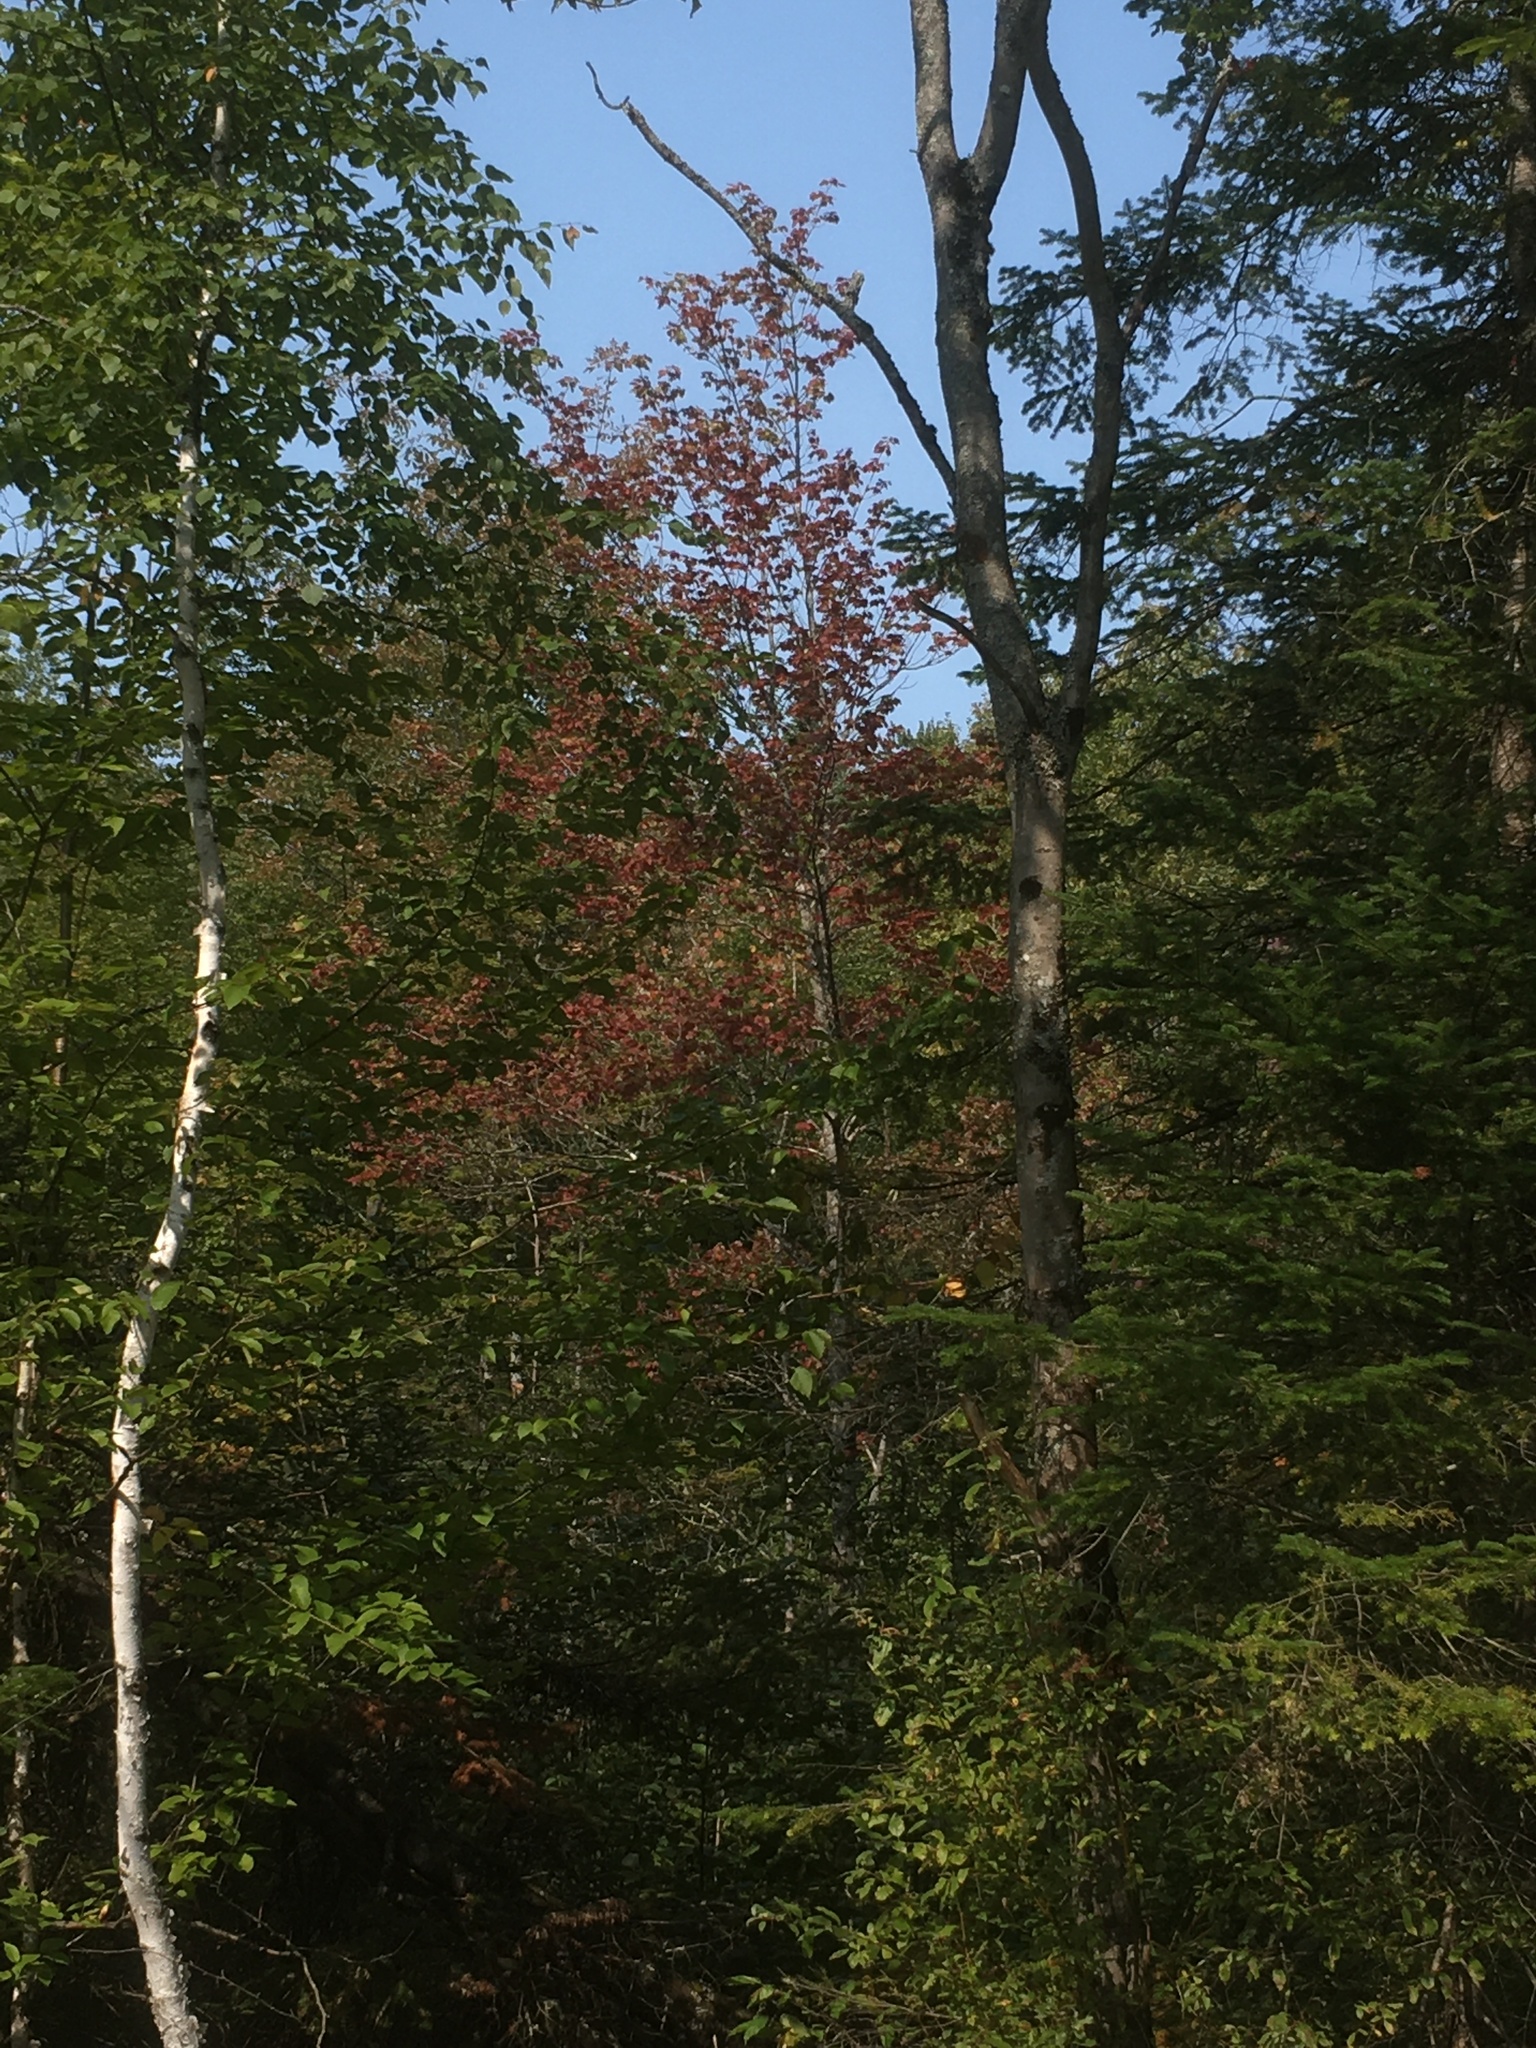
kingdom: Plantae
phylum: Tracheophyta
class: Magnoliopsida
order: Sapindales
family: Sapindaceae
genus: Acer
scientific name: Acer rubrum
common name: Red maple
